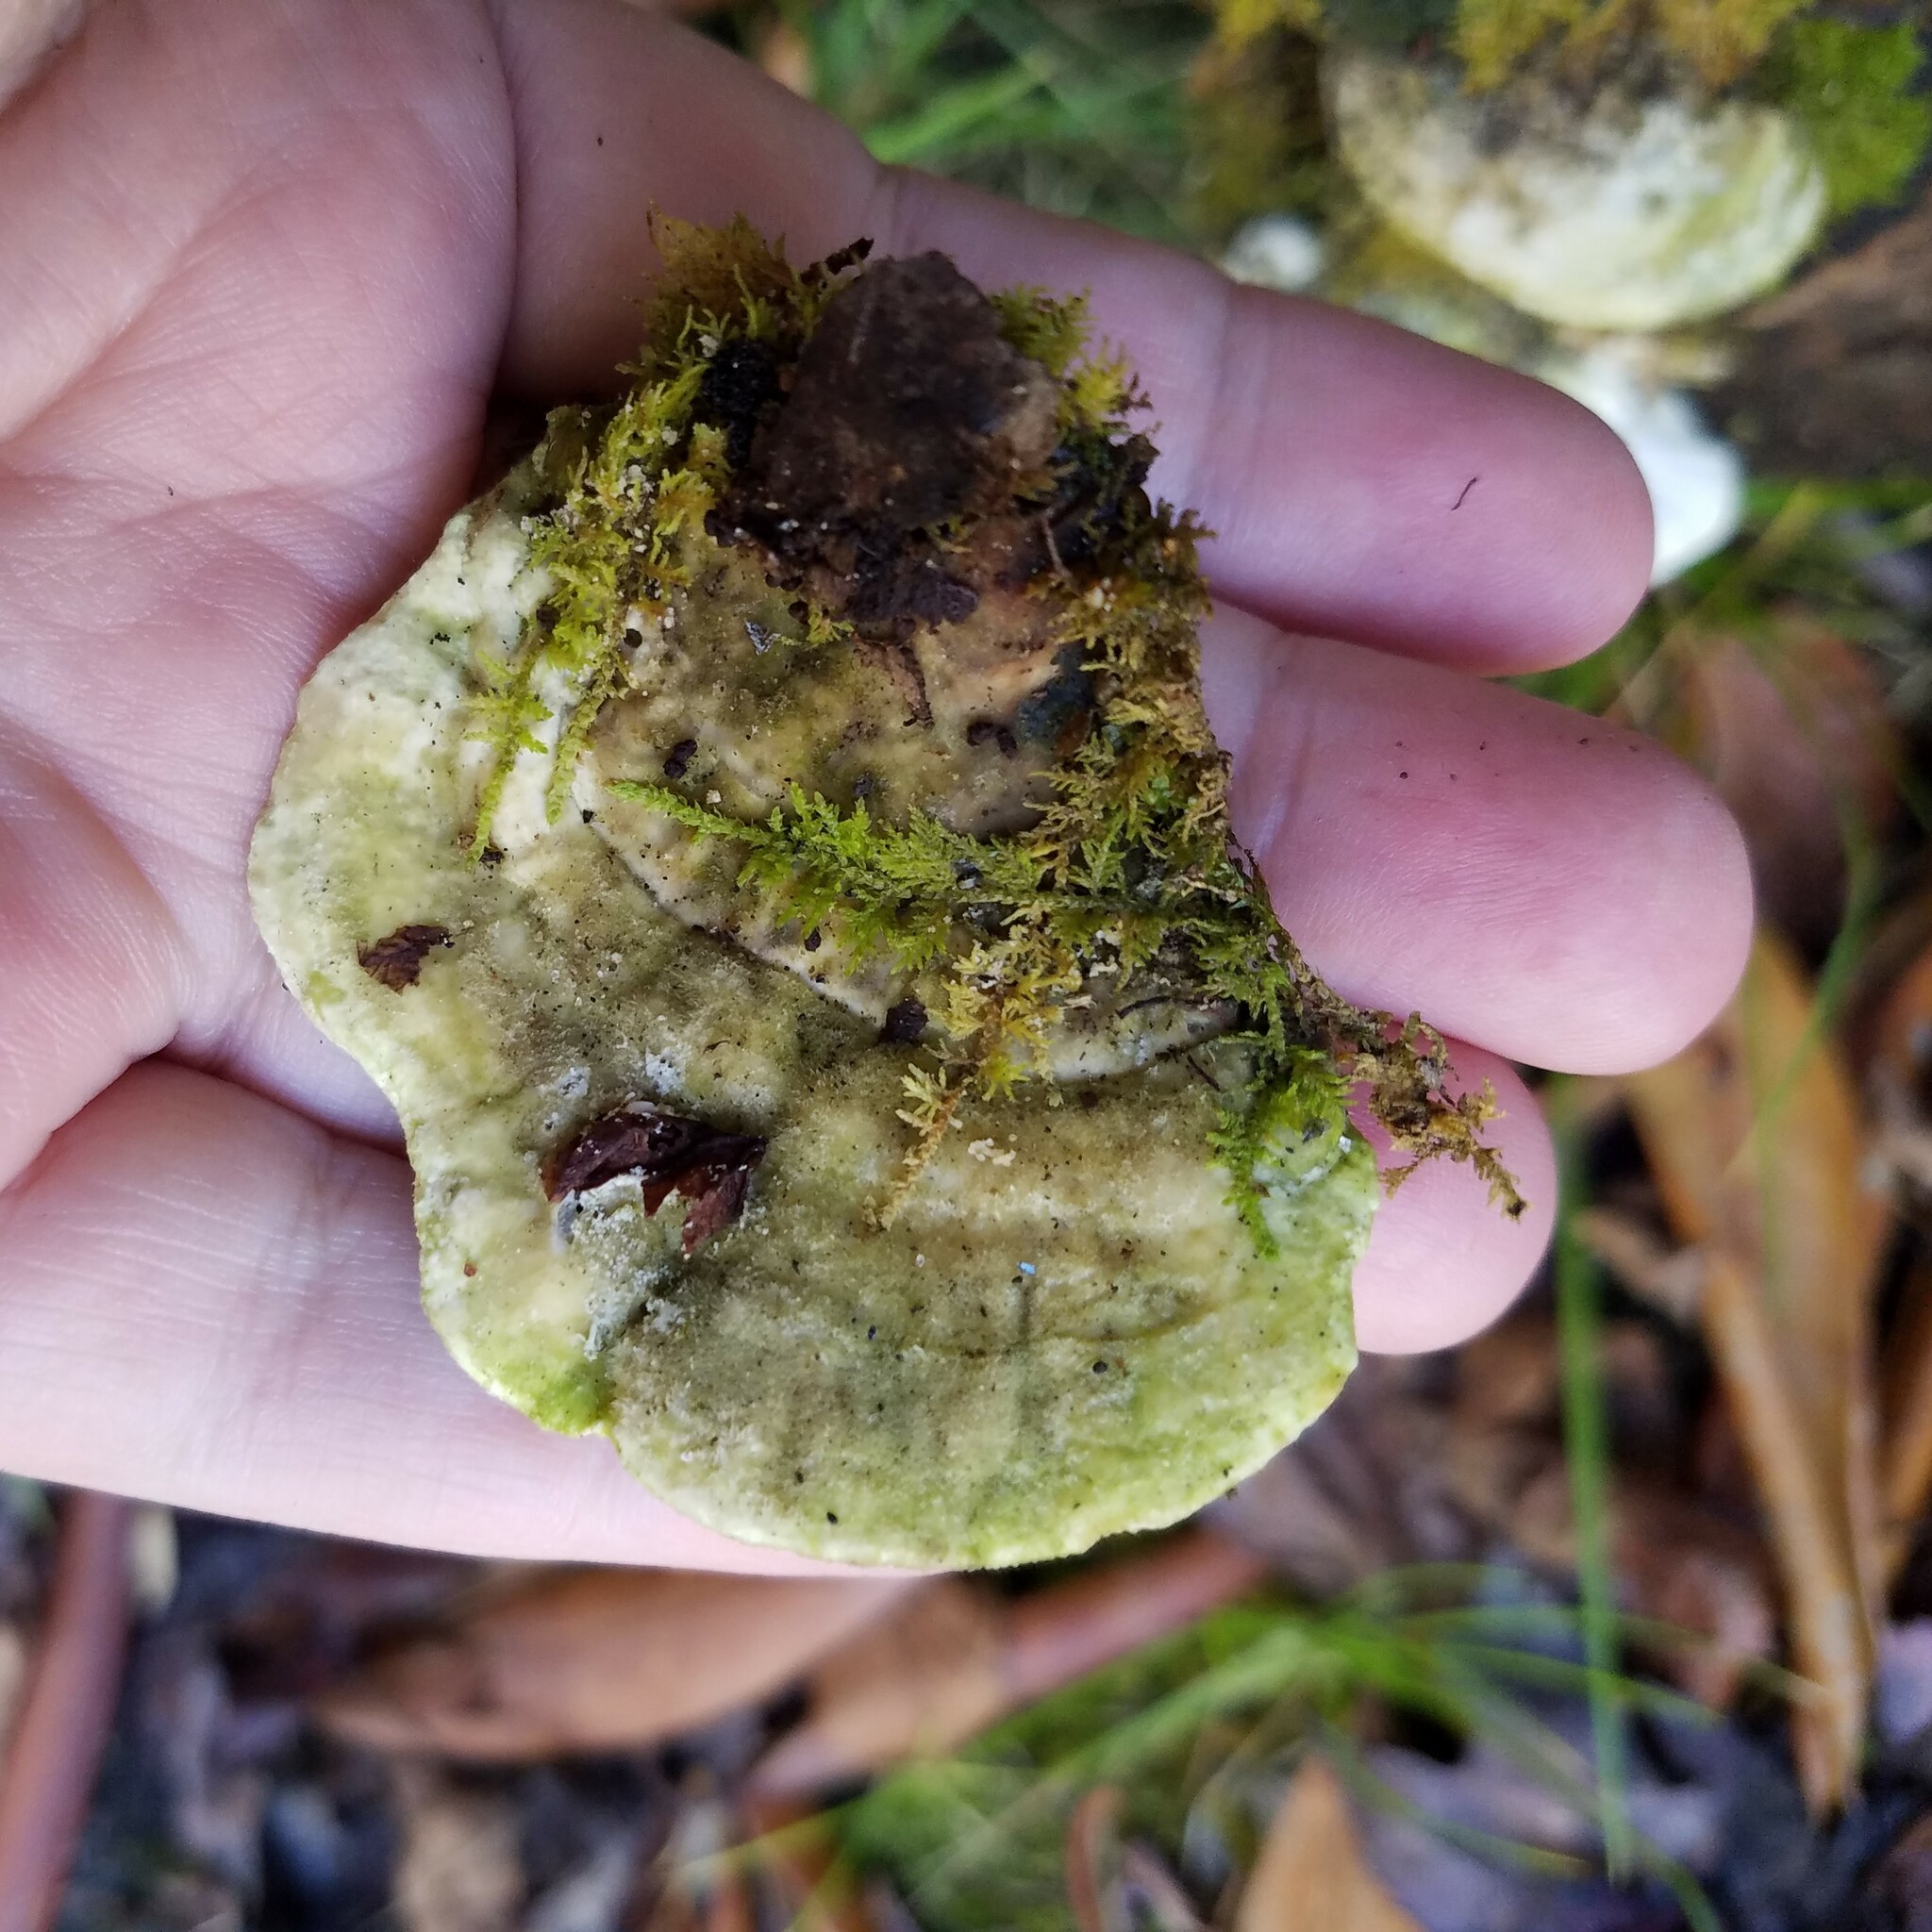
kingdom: Fungi
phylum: Basidiomycota
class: Agaricomycetes
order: Polyporales
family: Polyporaceae
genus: Trametes
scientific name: Trametes gibbosa
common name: Lumpy bracket
